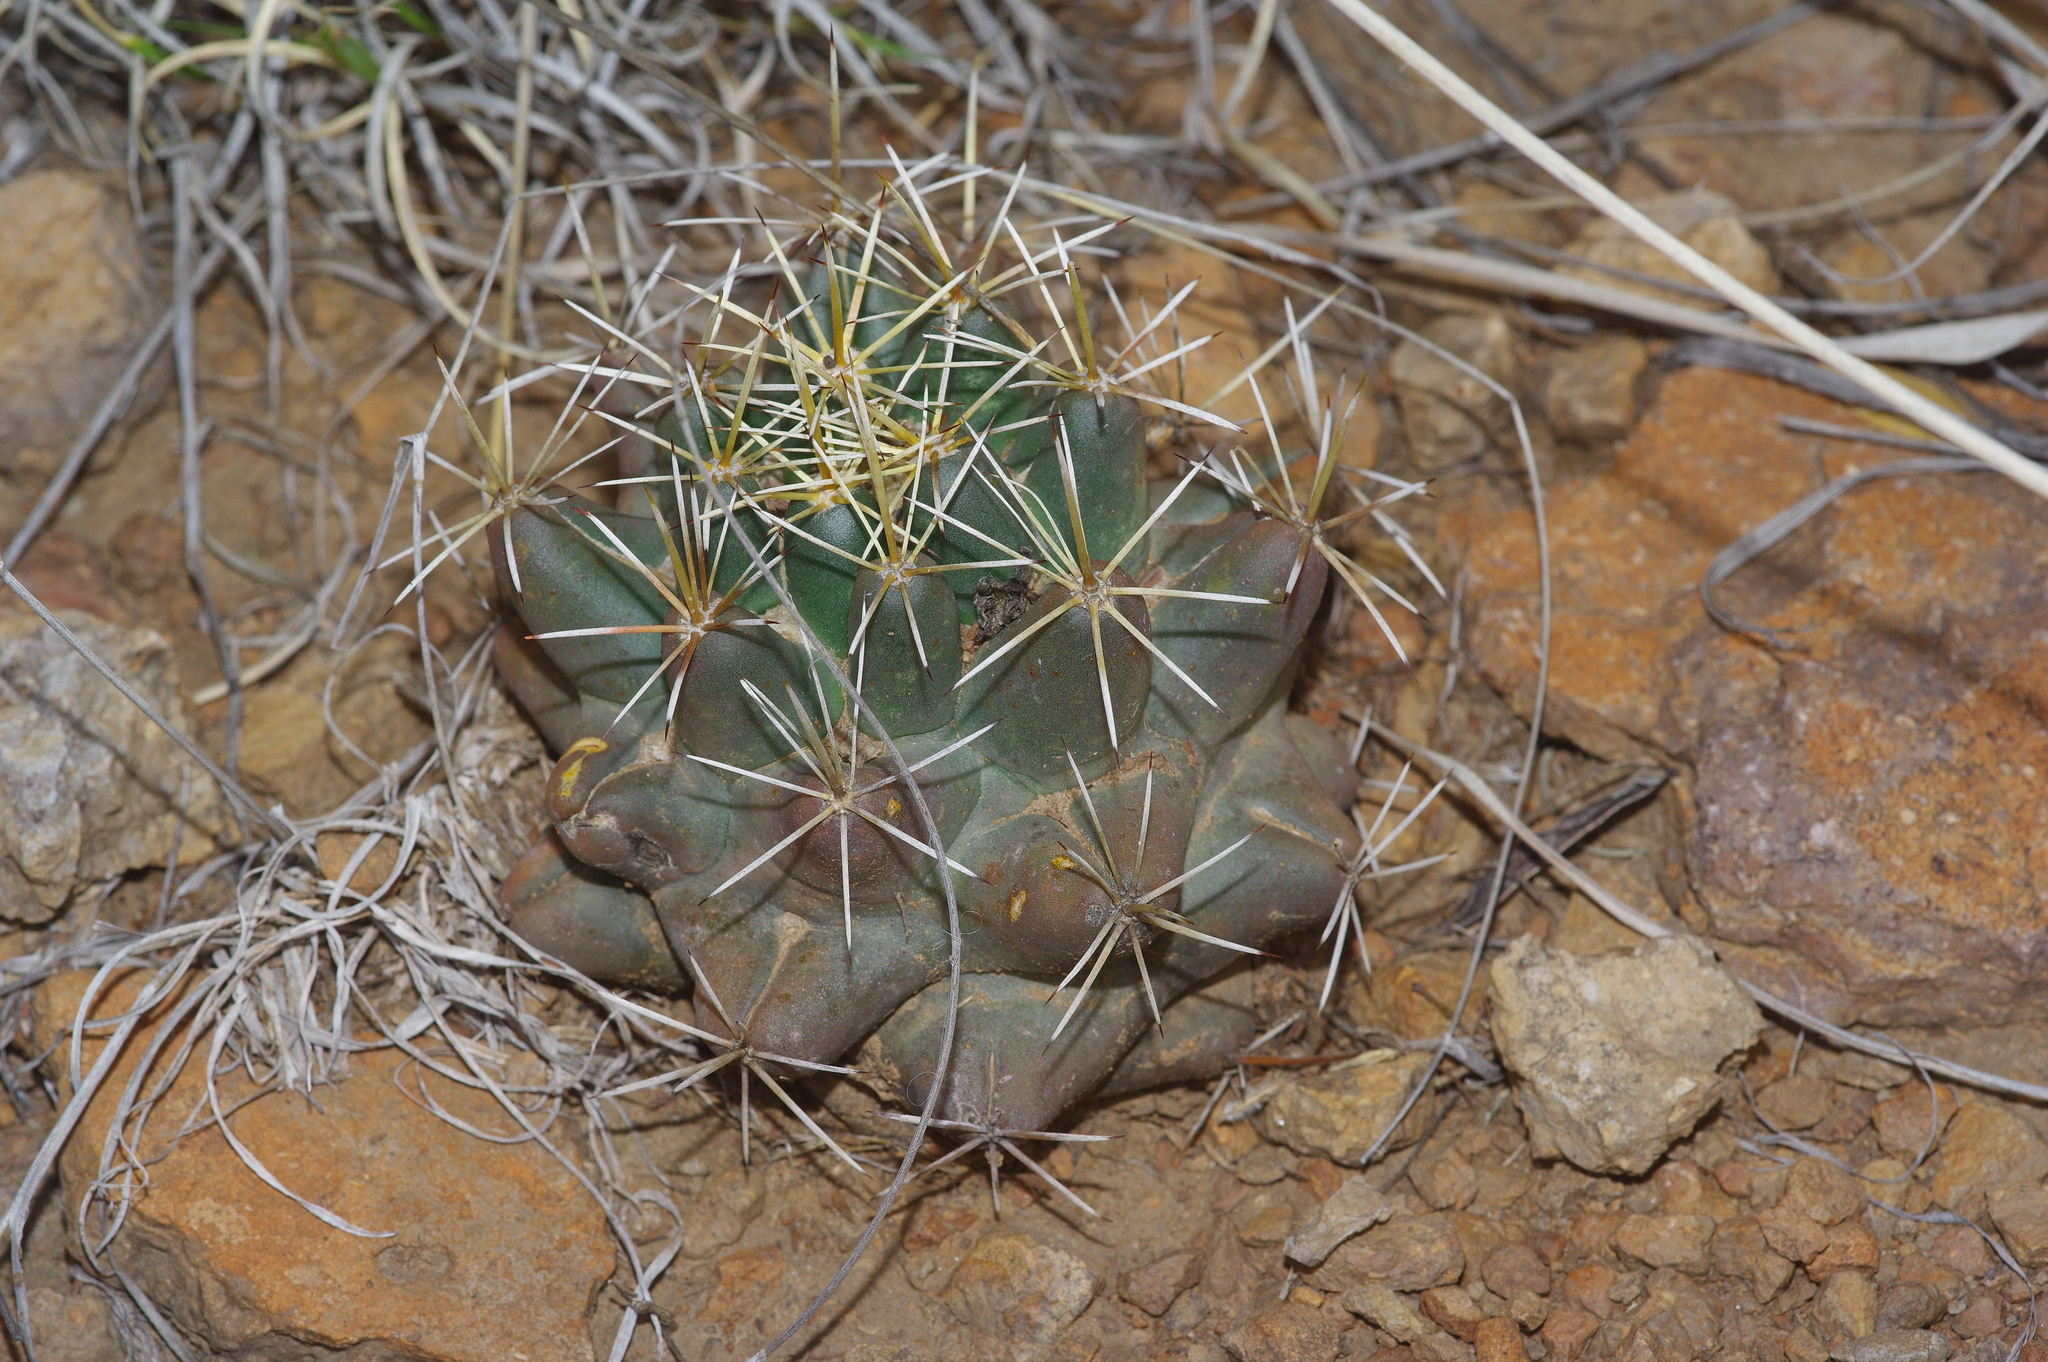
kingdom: Plantae
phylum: Tracheophyta
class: Magnoliopsida
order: Caryophyllales
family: Cactaceae
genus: Coryphantha
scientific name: Coryphantha robustispina
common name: Pima pineapple cactus
